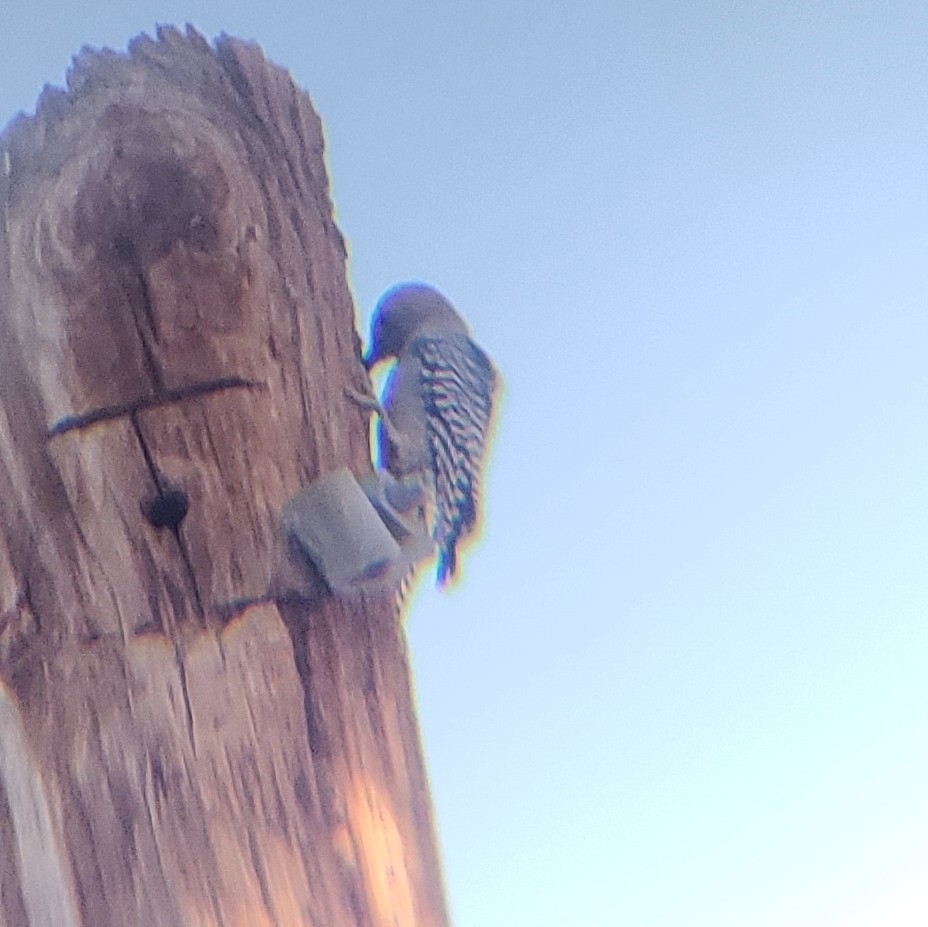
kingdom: Animalia
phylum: Chordata
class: Aves
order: Piciformes
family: Picidae
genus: Melanerpes
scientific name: Melanerpes uropygialis
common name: Gila woodpecker
